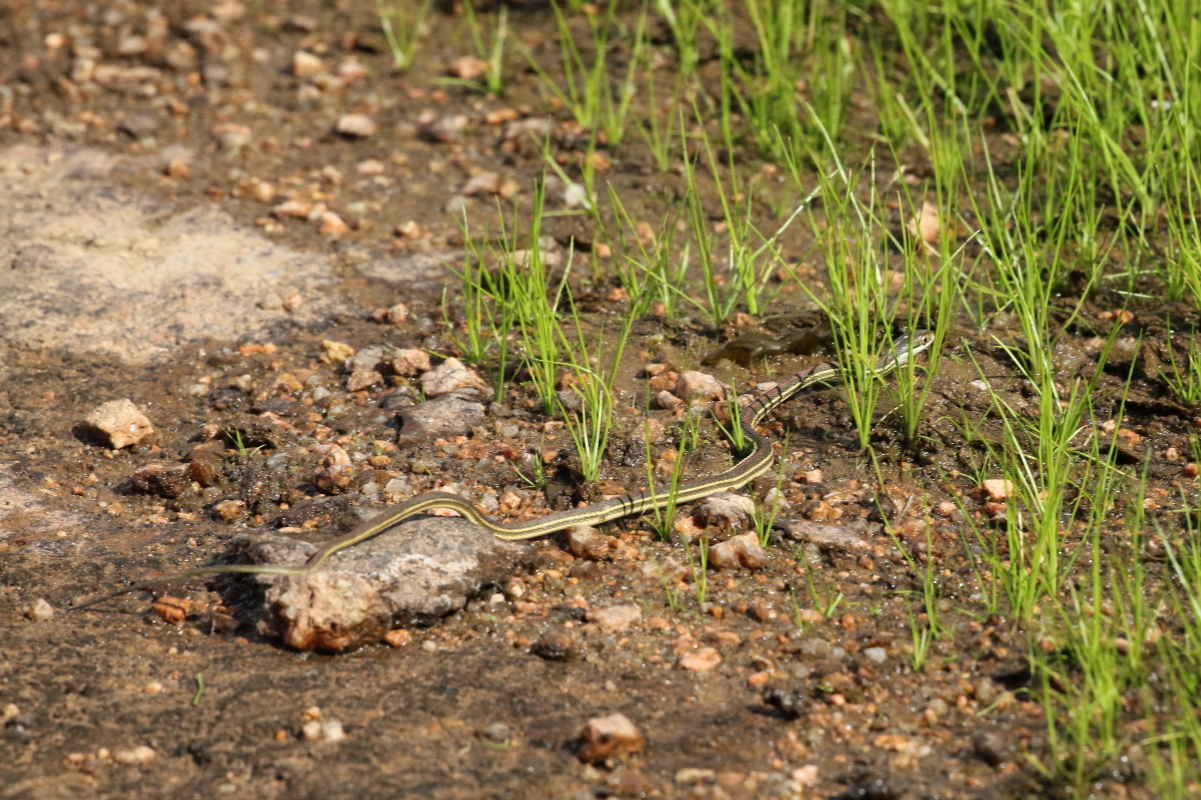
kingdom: Animalia
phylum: Chordata
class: Squamata
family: Colubridae
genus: Thamnophis
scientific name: Thamnophis proximus
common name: Western ribbon snake
